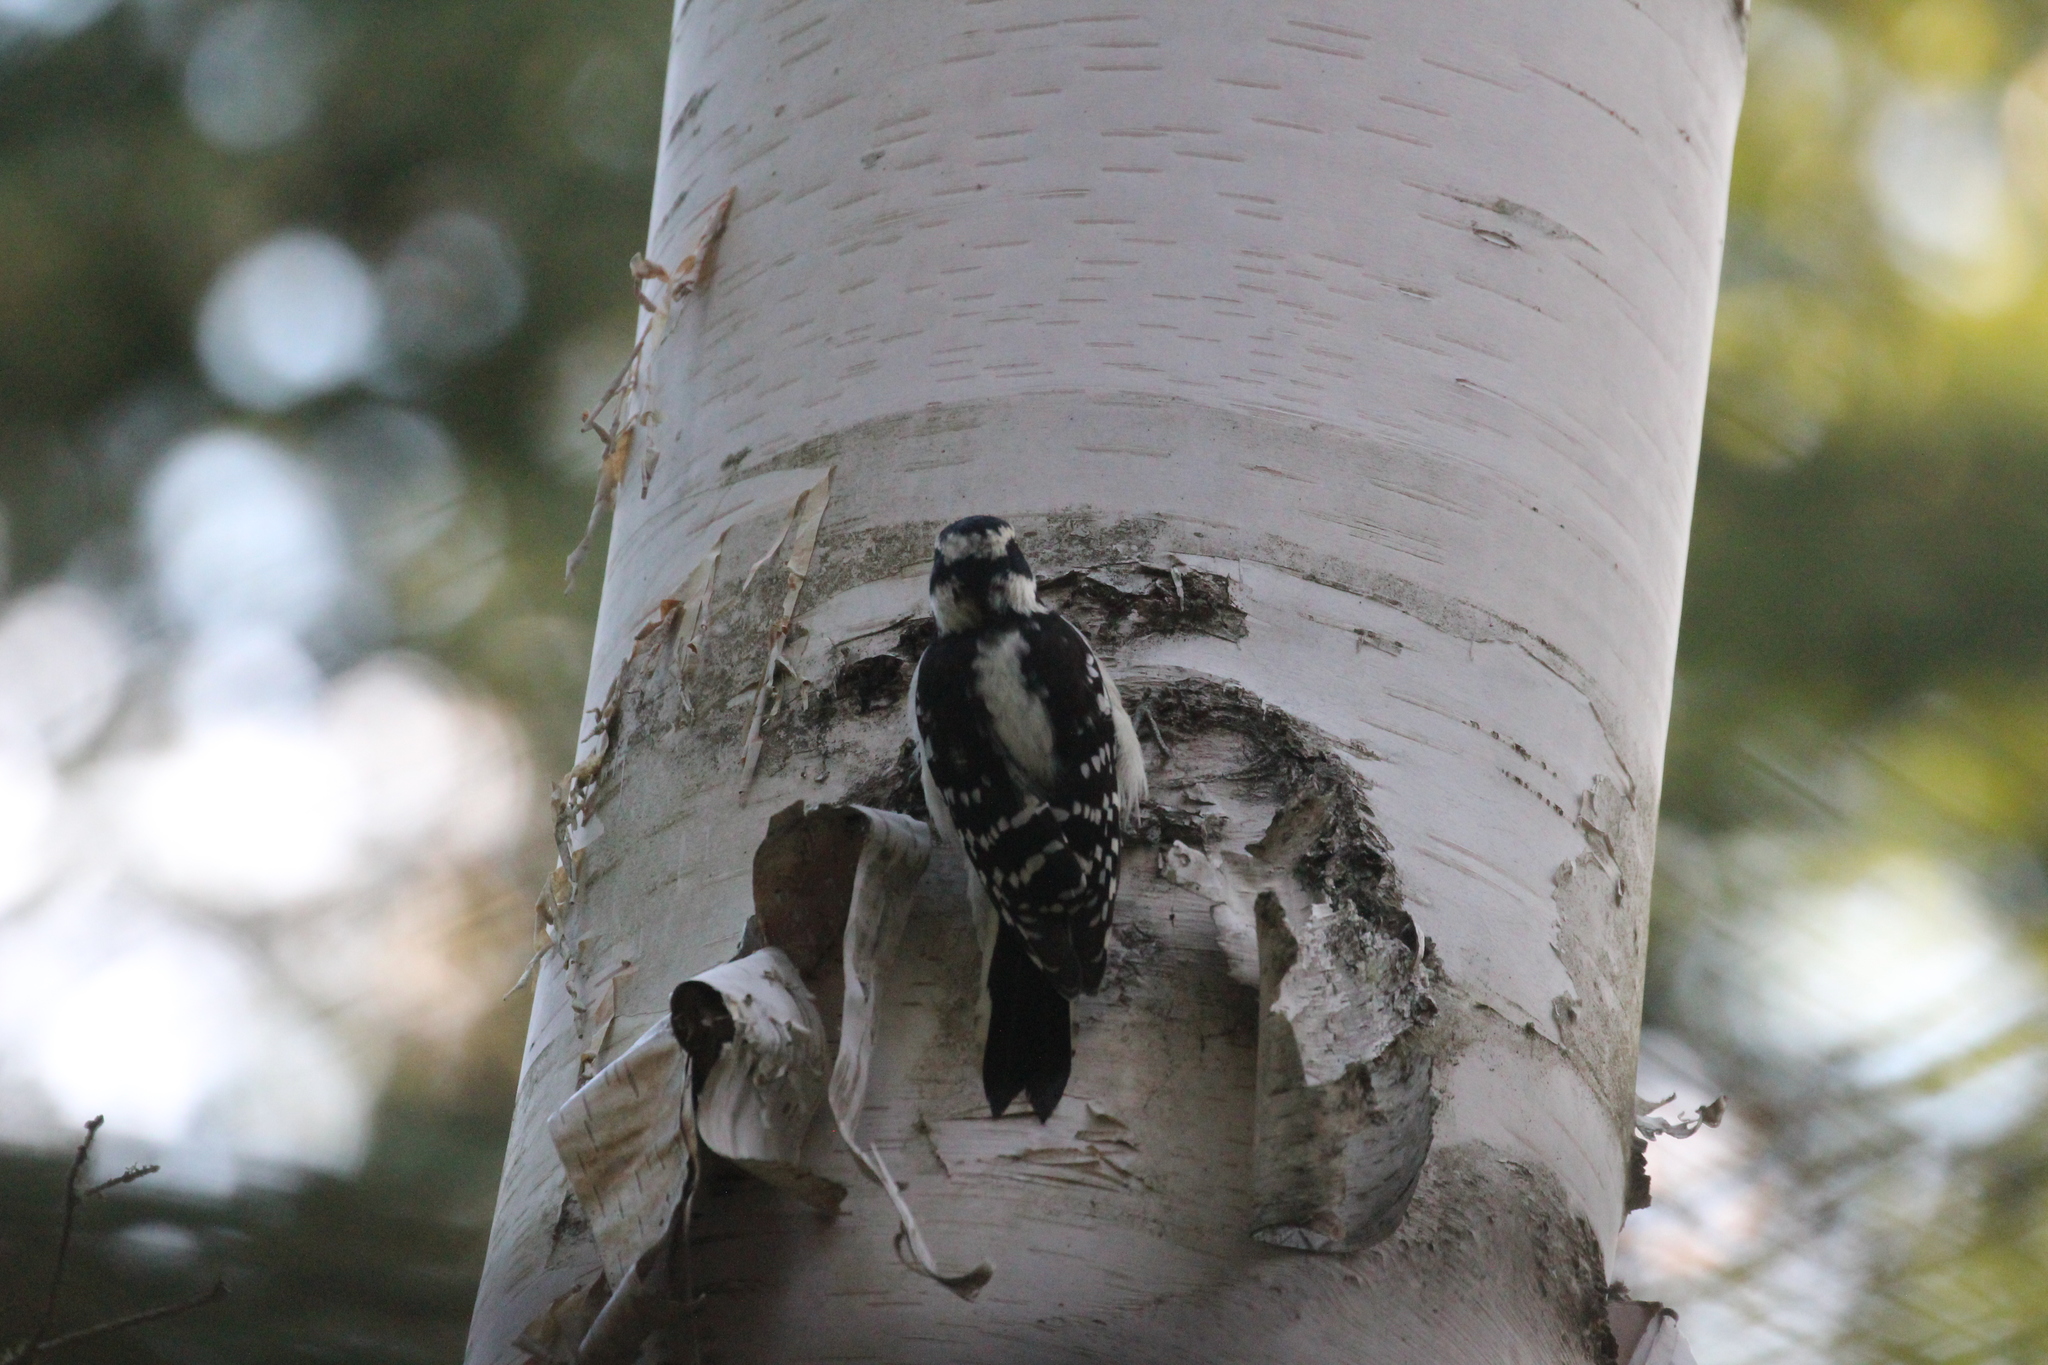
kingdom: Animalia
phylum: Chordata
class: Aves
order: Piciformes
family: Picidae
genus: Dryobates
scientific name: Dryobates pubescens
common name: Downy woodpecker
